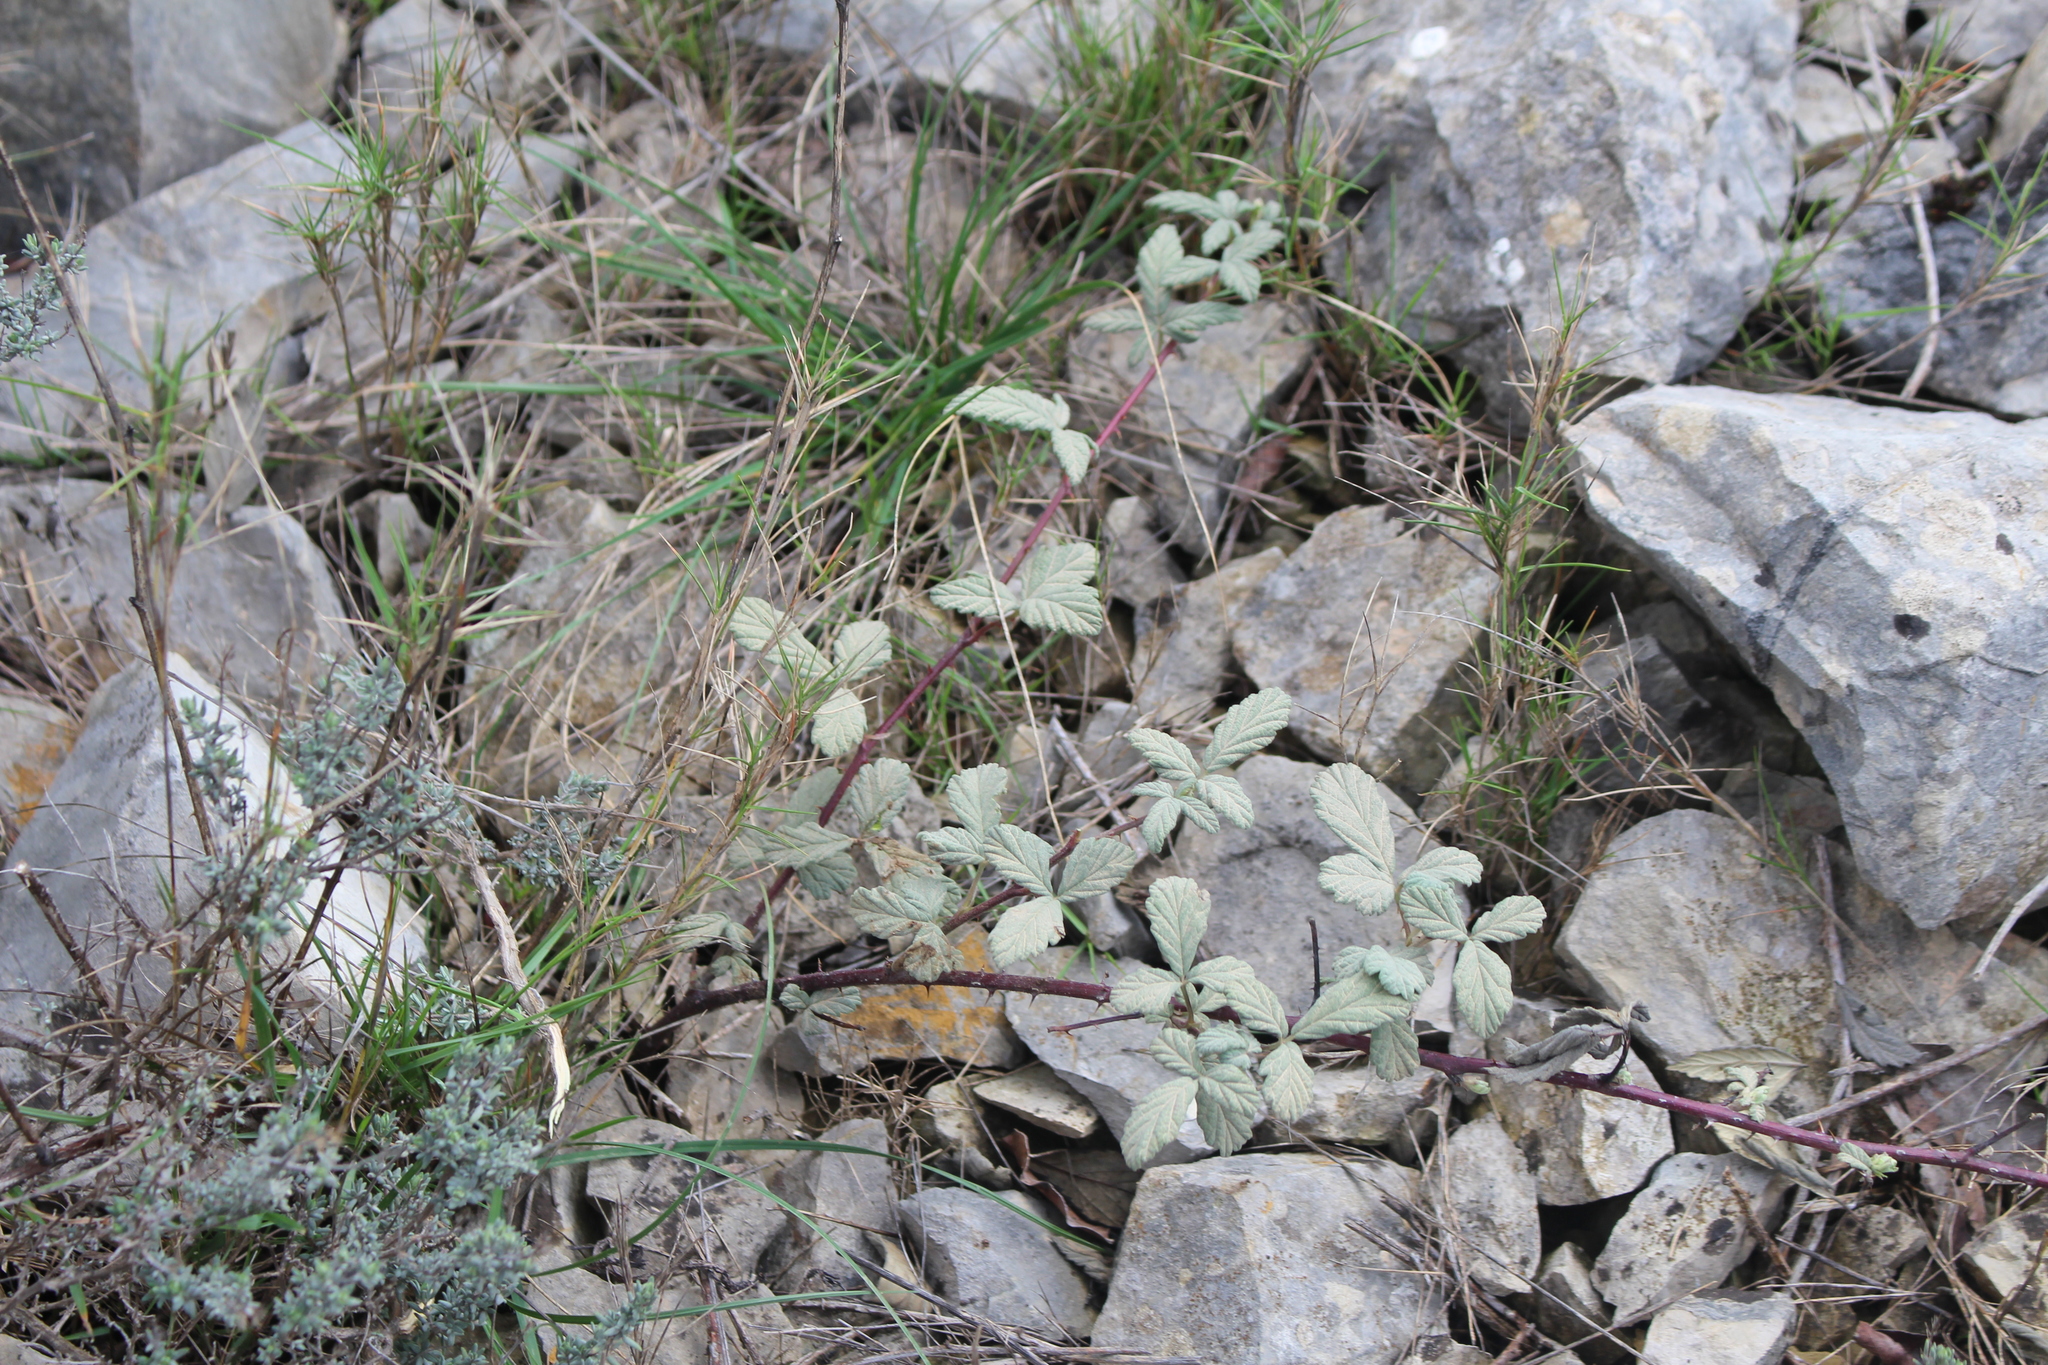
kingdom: Plantae
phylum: Tracheophyta
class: Magnoliopsida
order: Rosales
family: Rosaceae
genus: Rubus
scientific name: Rubus canescens
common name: Wooly blackberry
